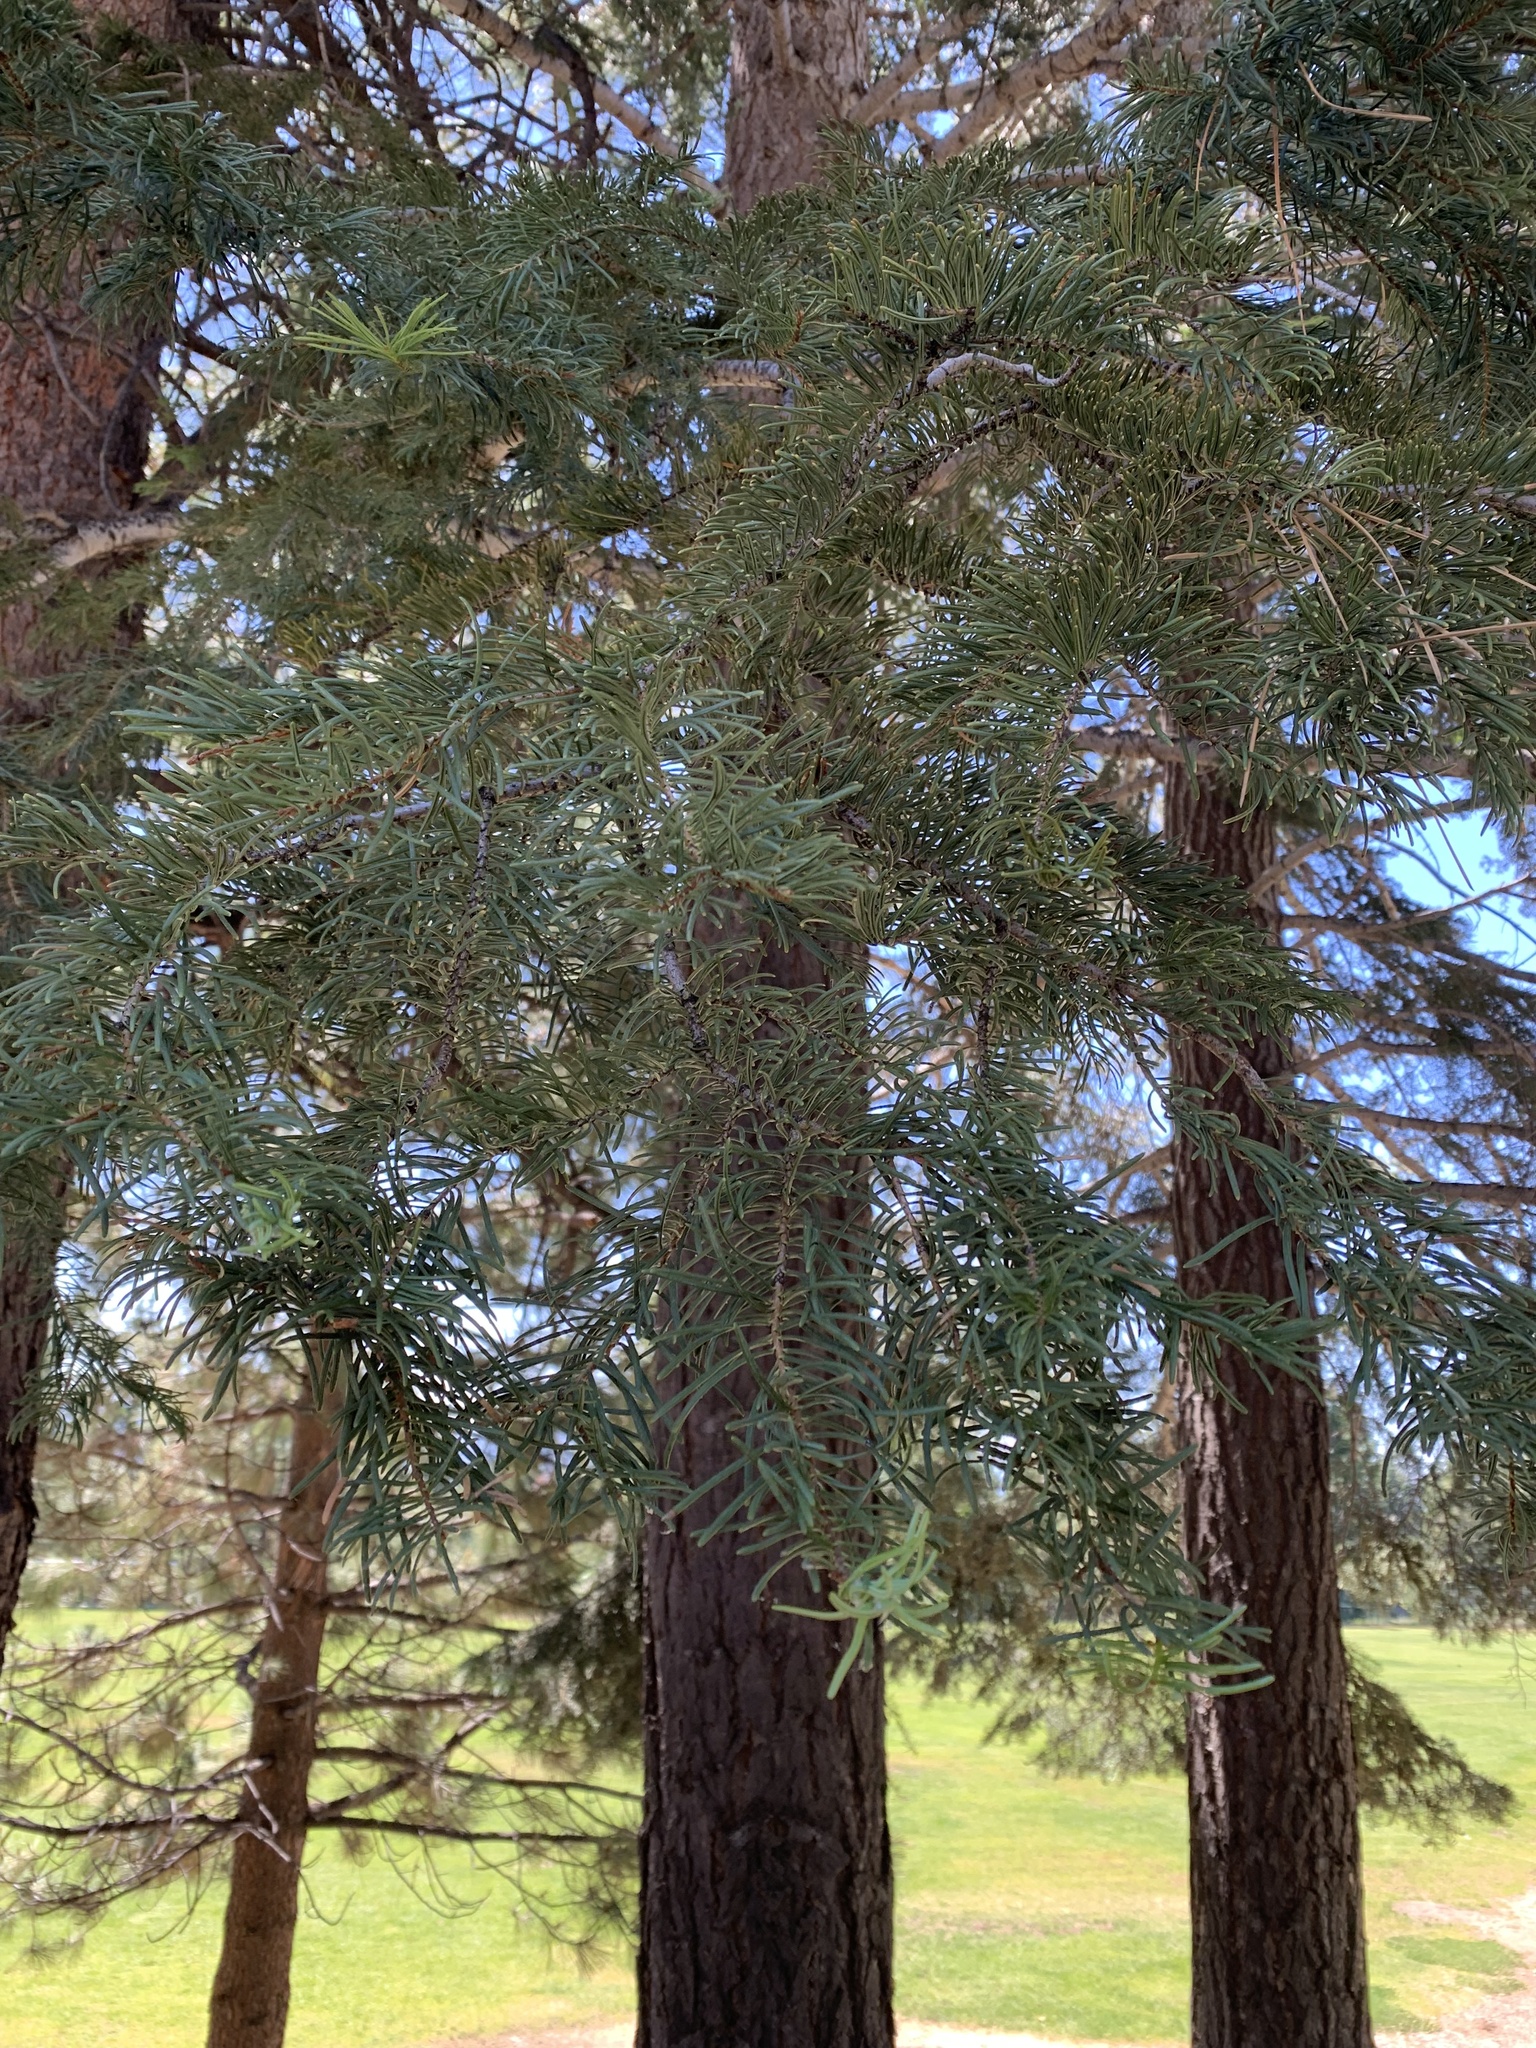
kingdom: Plantae
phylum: Tracheophyta
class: Pinopsida
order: Pinales
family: Pinaceae
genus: Abies
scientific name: Abies concolor
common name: Colorado fir
